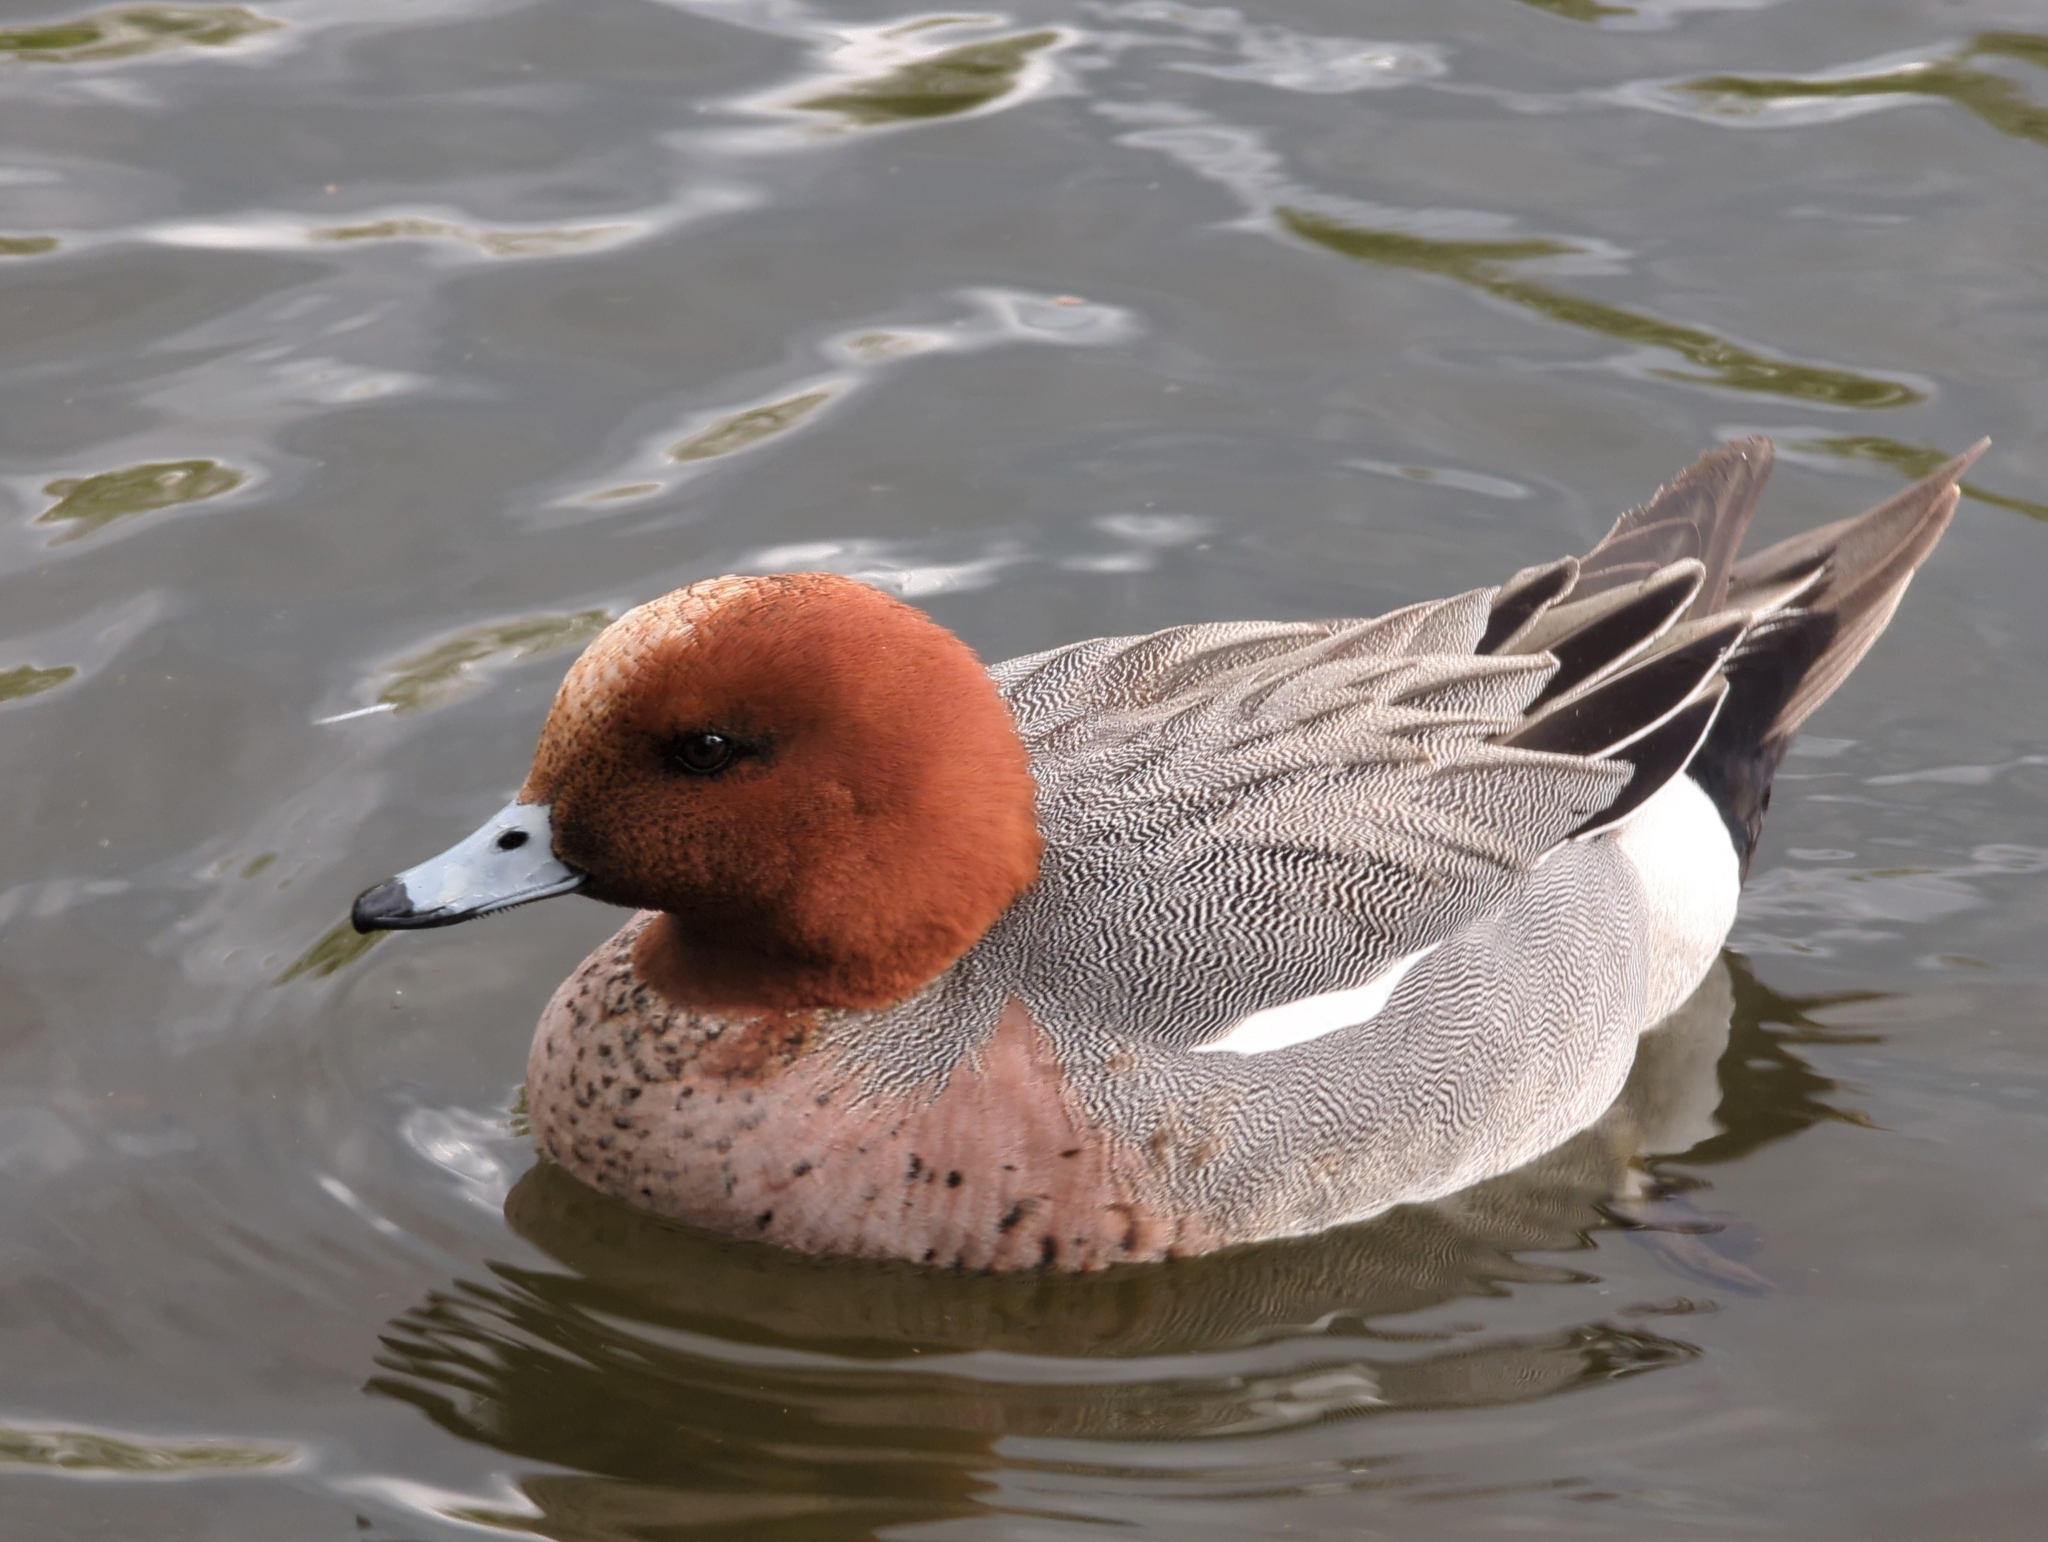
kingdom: Animalia
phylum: Chordata
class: Aves
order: Anseriformes
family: Anatidae
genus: Mareca
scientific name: Mareca penelope
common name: Eurasian wigeon
